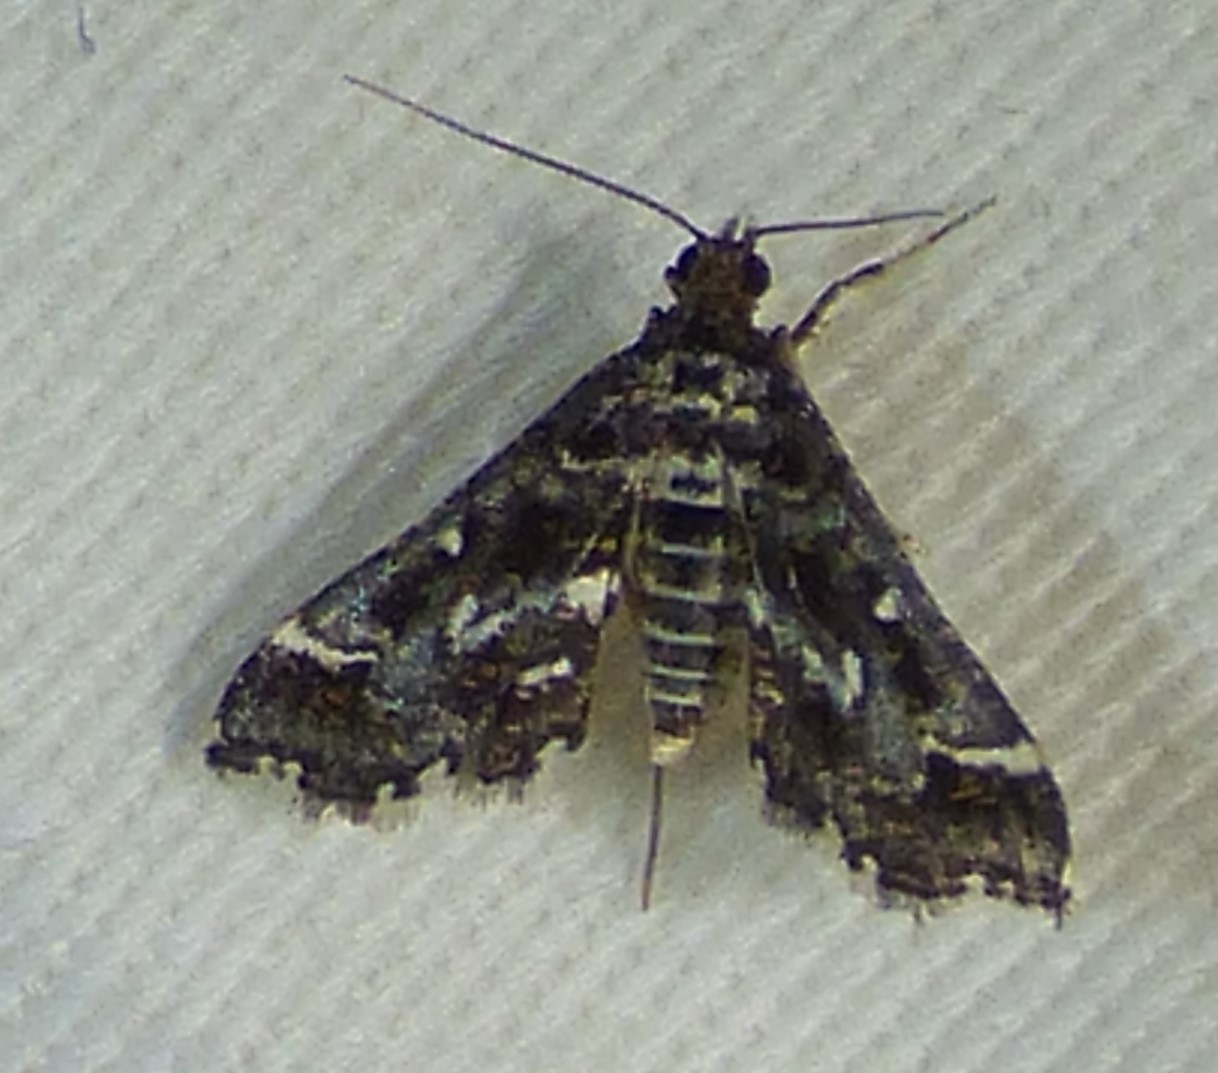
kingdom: Animalia
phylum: Arthropoda
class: Insecta
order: Lepidoptera
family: Crambidae
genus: Diasemiopsis
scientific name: Diasemiopsis ramburialis
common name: Vagrant china-mark
